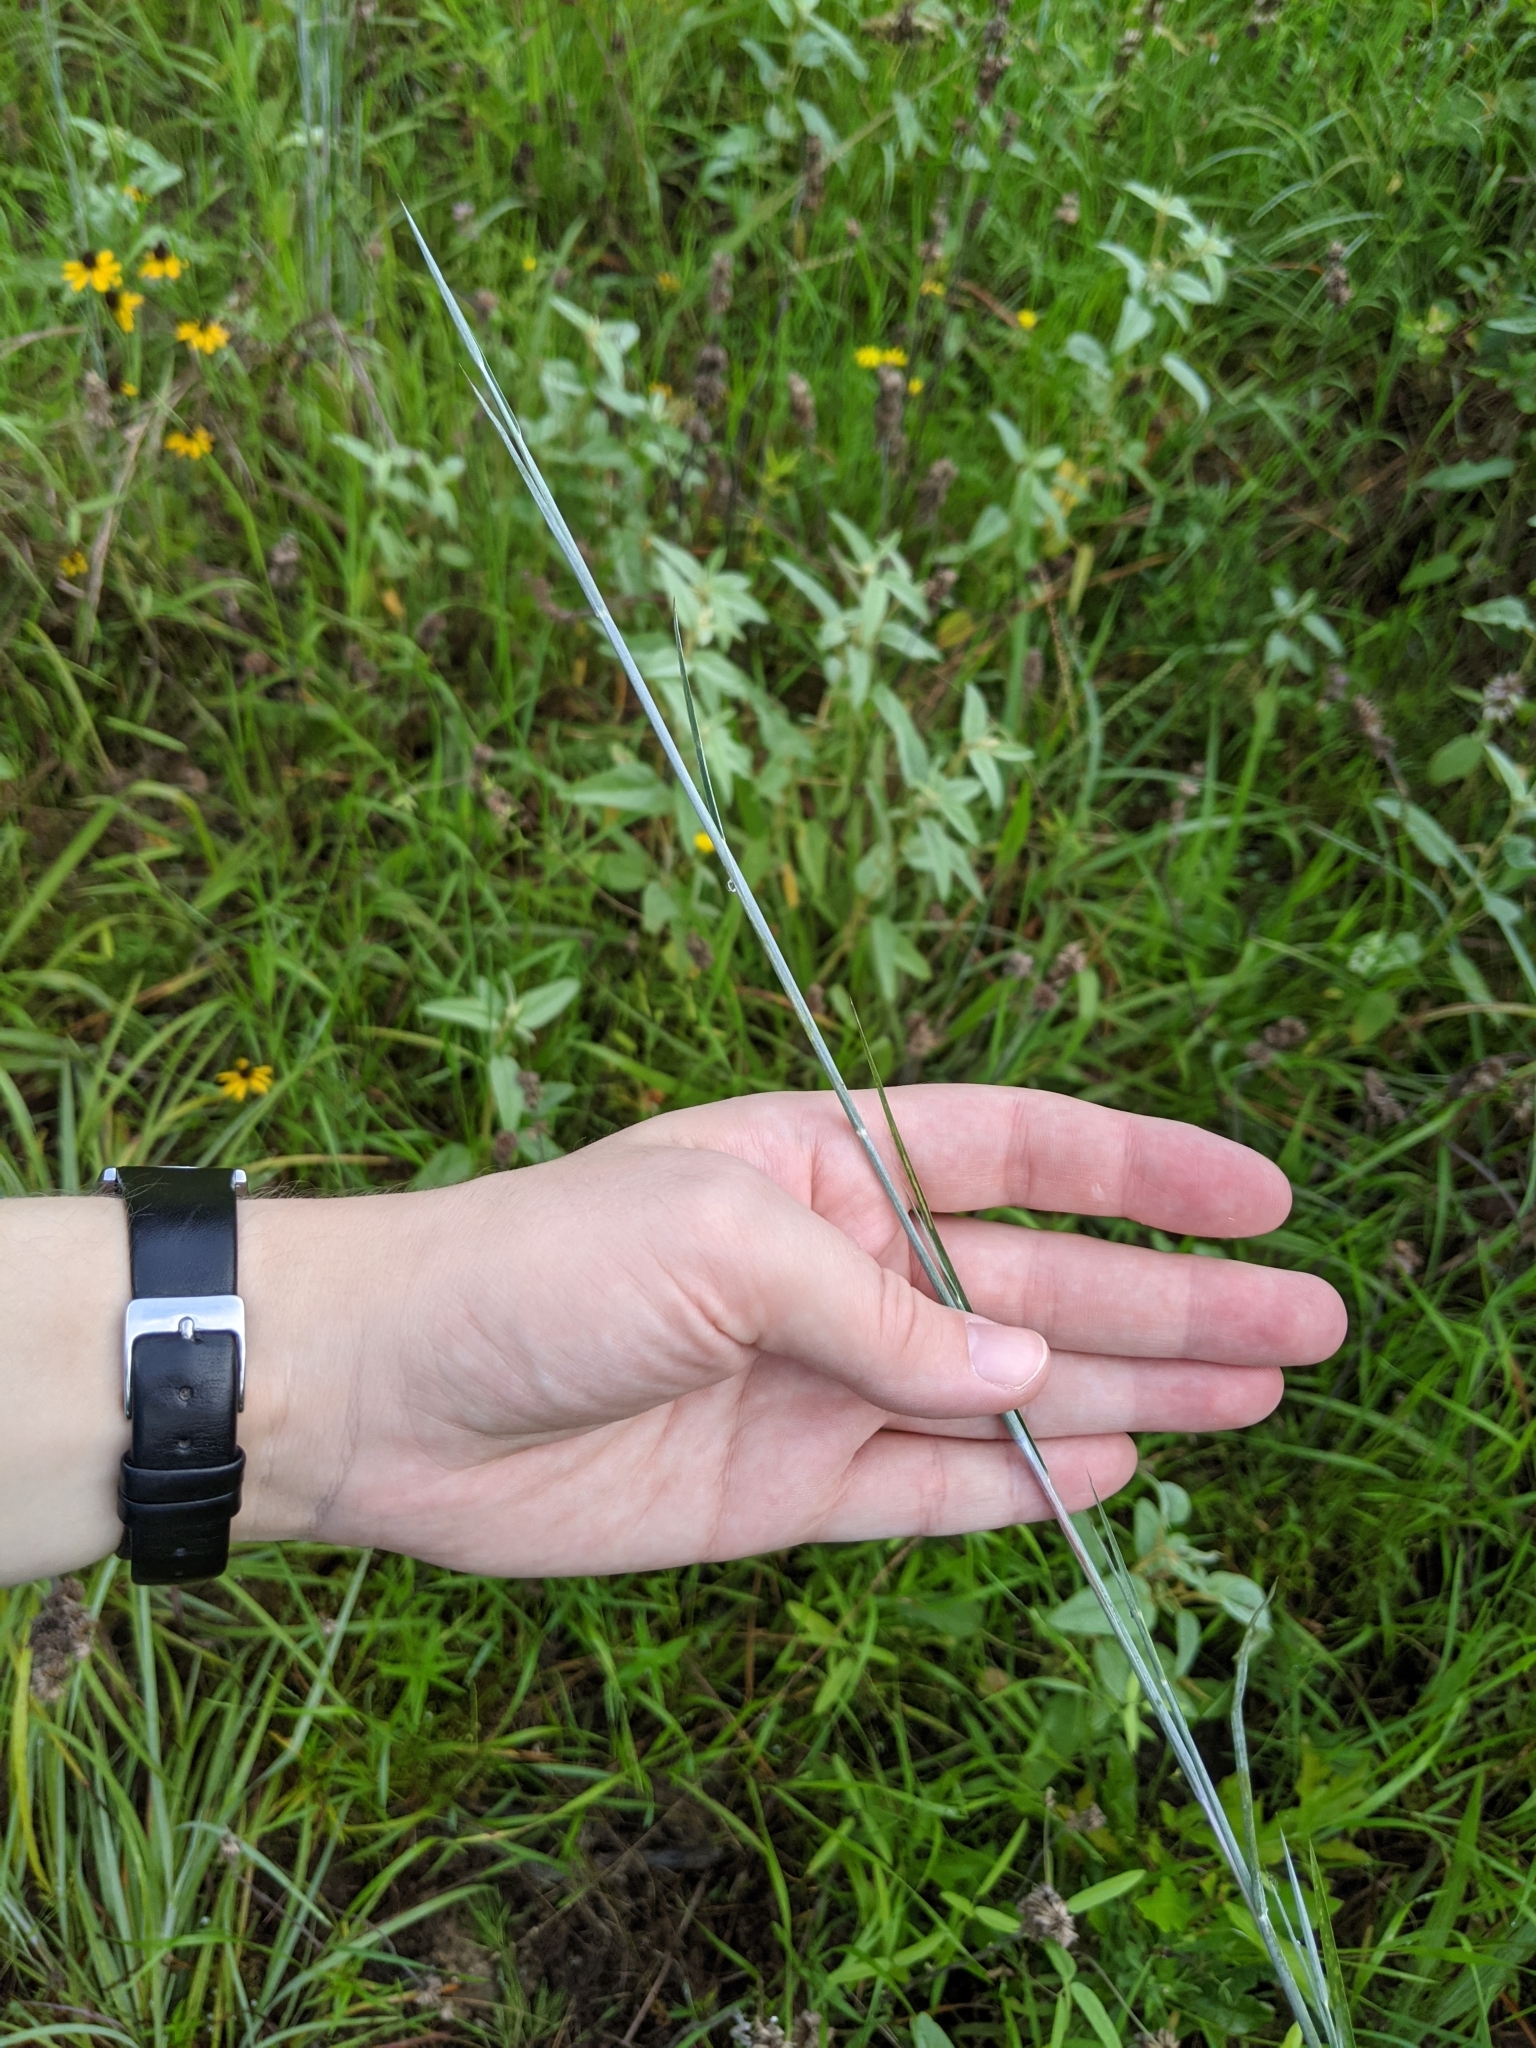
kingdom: Plantae
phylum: Tracheophyta
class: Liliopsida
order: Poales
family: Poaceae
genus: Schizachyrium
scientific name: Schizachyrium scoparium
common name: Little bluestem
